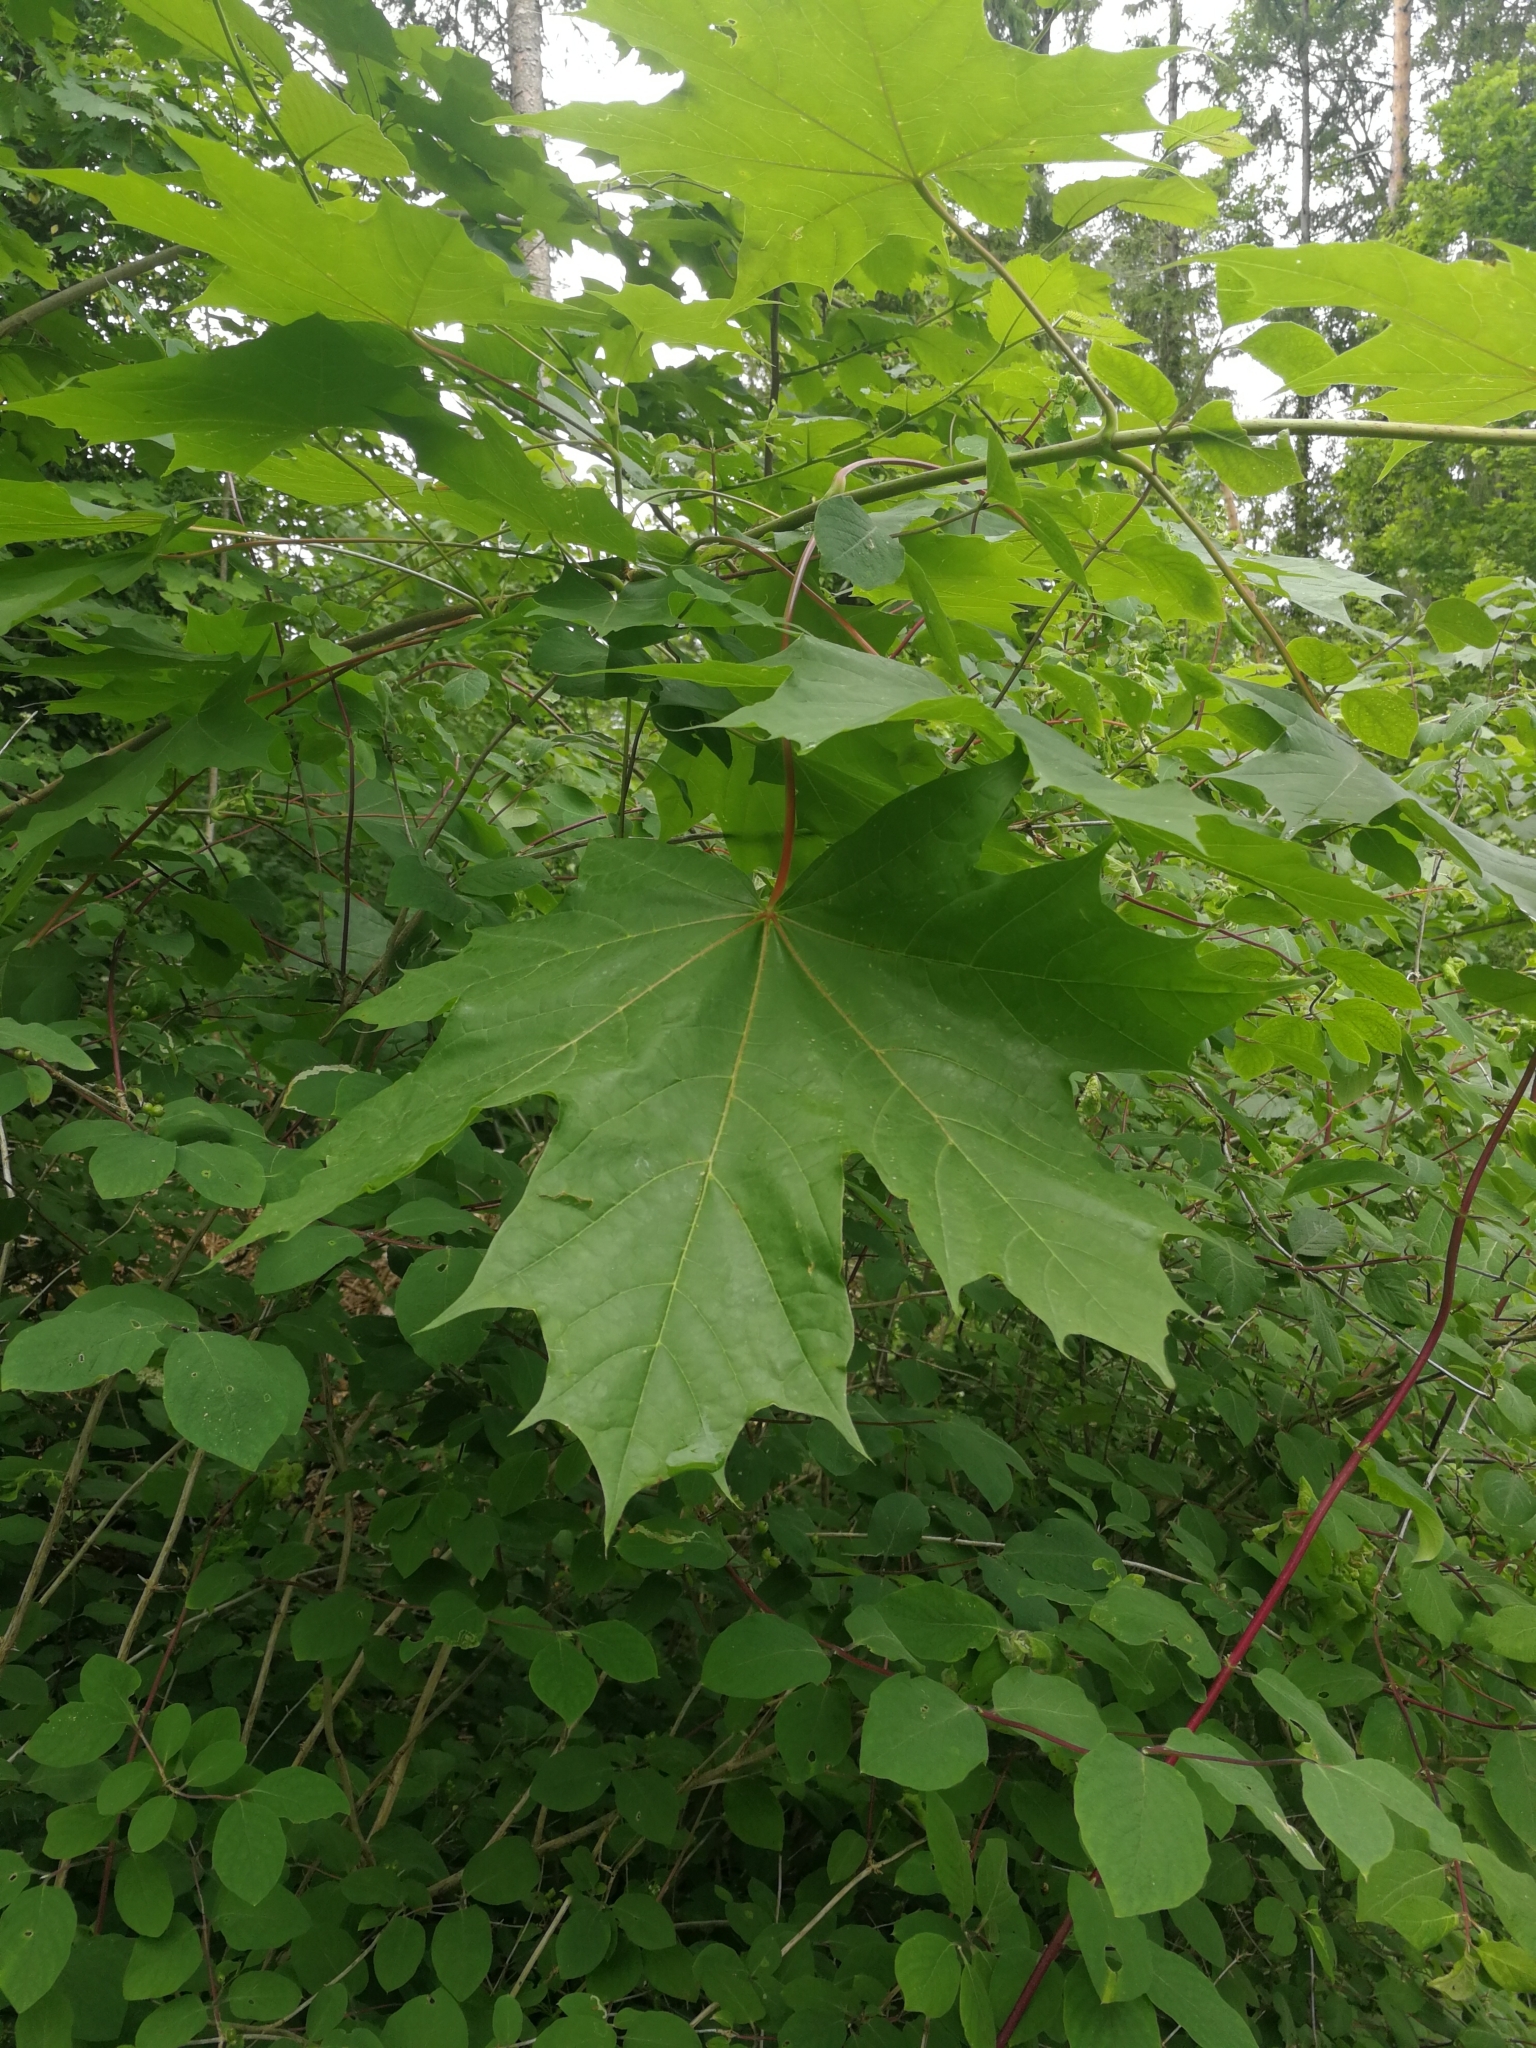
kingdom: Plantae
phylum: Tracheophyta
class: Magnoliopsida
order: Sapindales
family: Sapindaceae
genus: Acer
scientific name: Acer platanoides
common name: Norway maple
